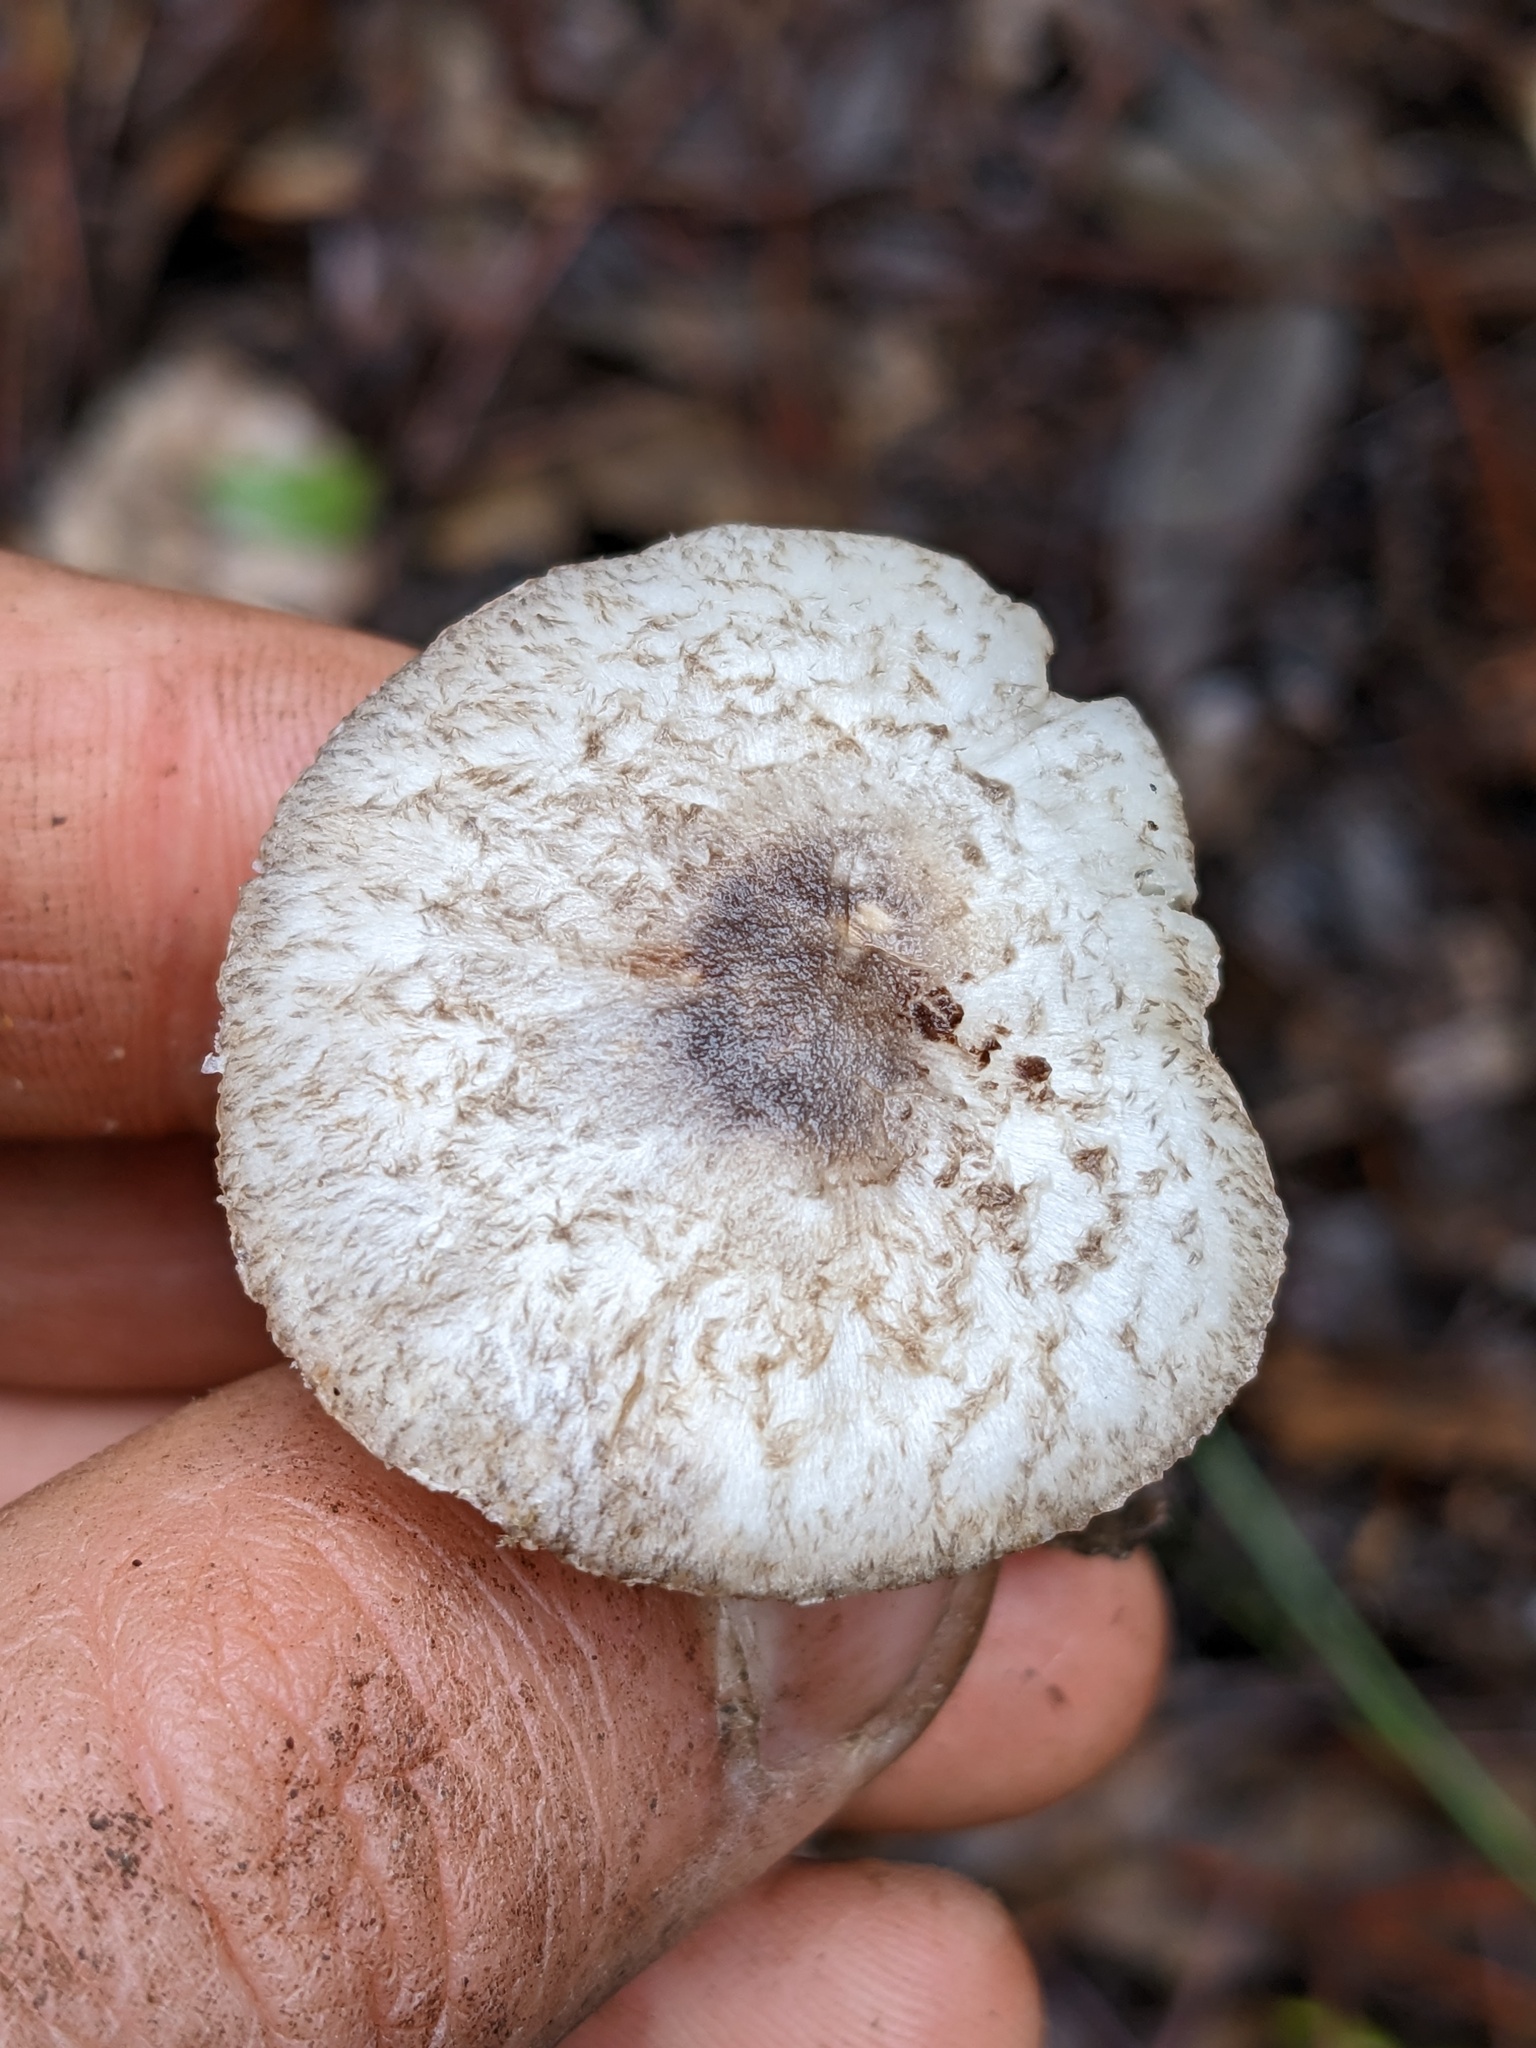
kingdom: Fungi
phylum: Basidiomycota
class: Agaricomycetes
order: Agaricales
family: Agaricaceae
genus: Leucocoprinus
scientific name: Leucocoprinus brebissonii
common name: Skullcap dapperling
